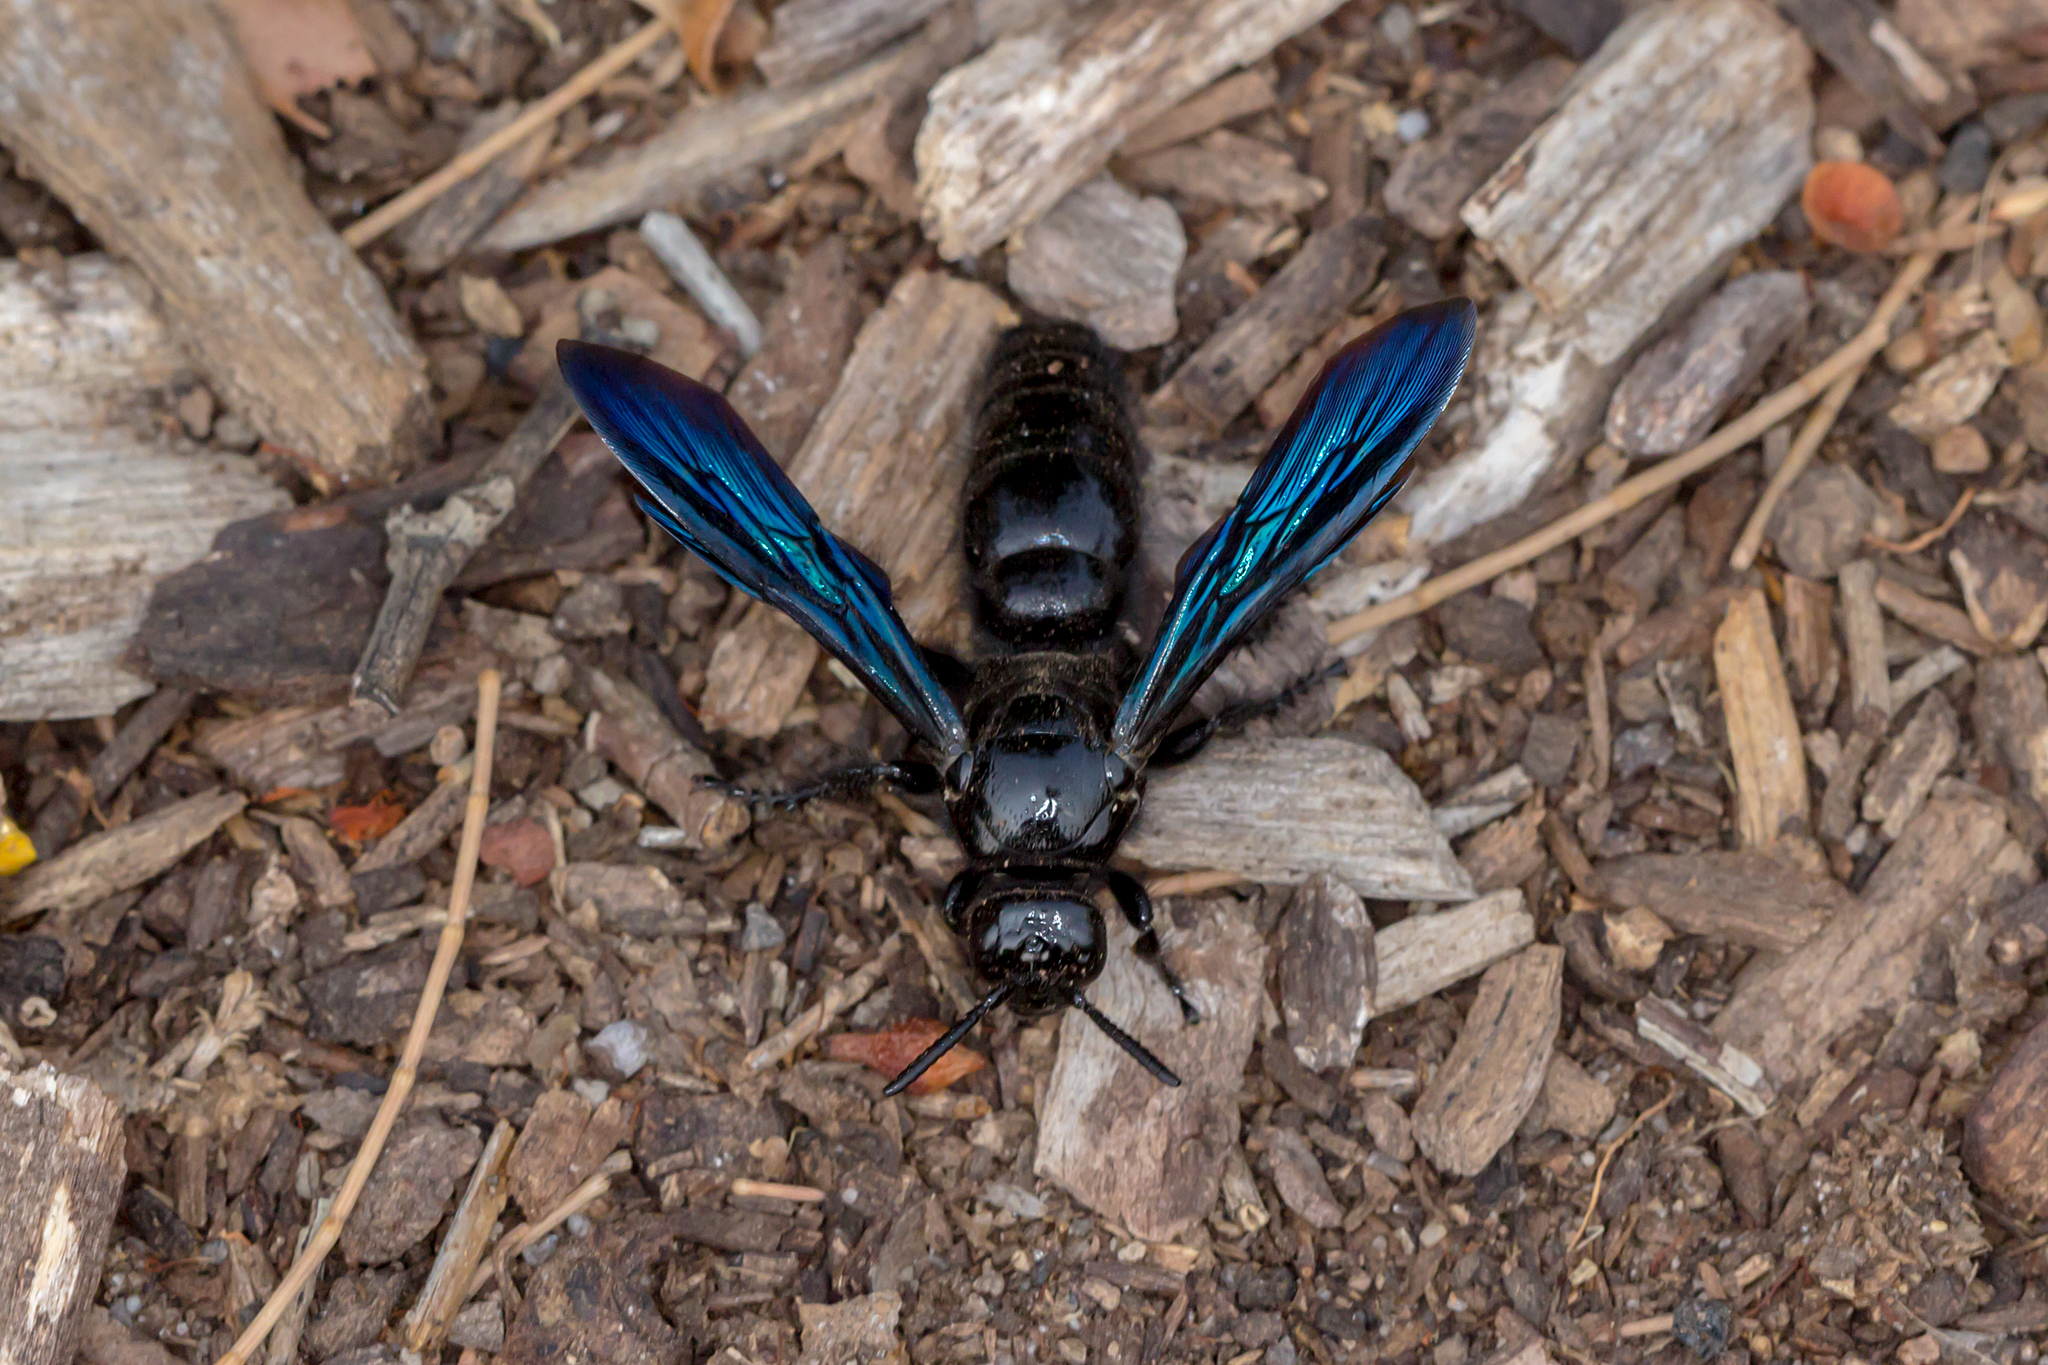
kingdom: Animalia
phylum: Arthropoda
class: Insecta
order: Hymenoptera
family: Scoliidae
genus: Austroscolia
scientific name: Austroscolia
